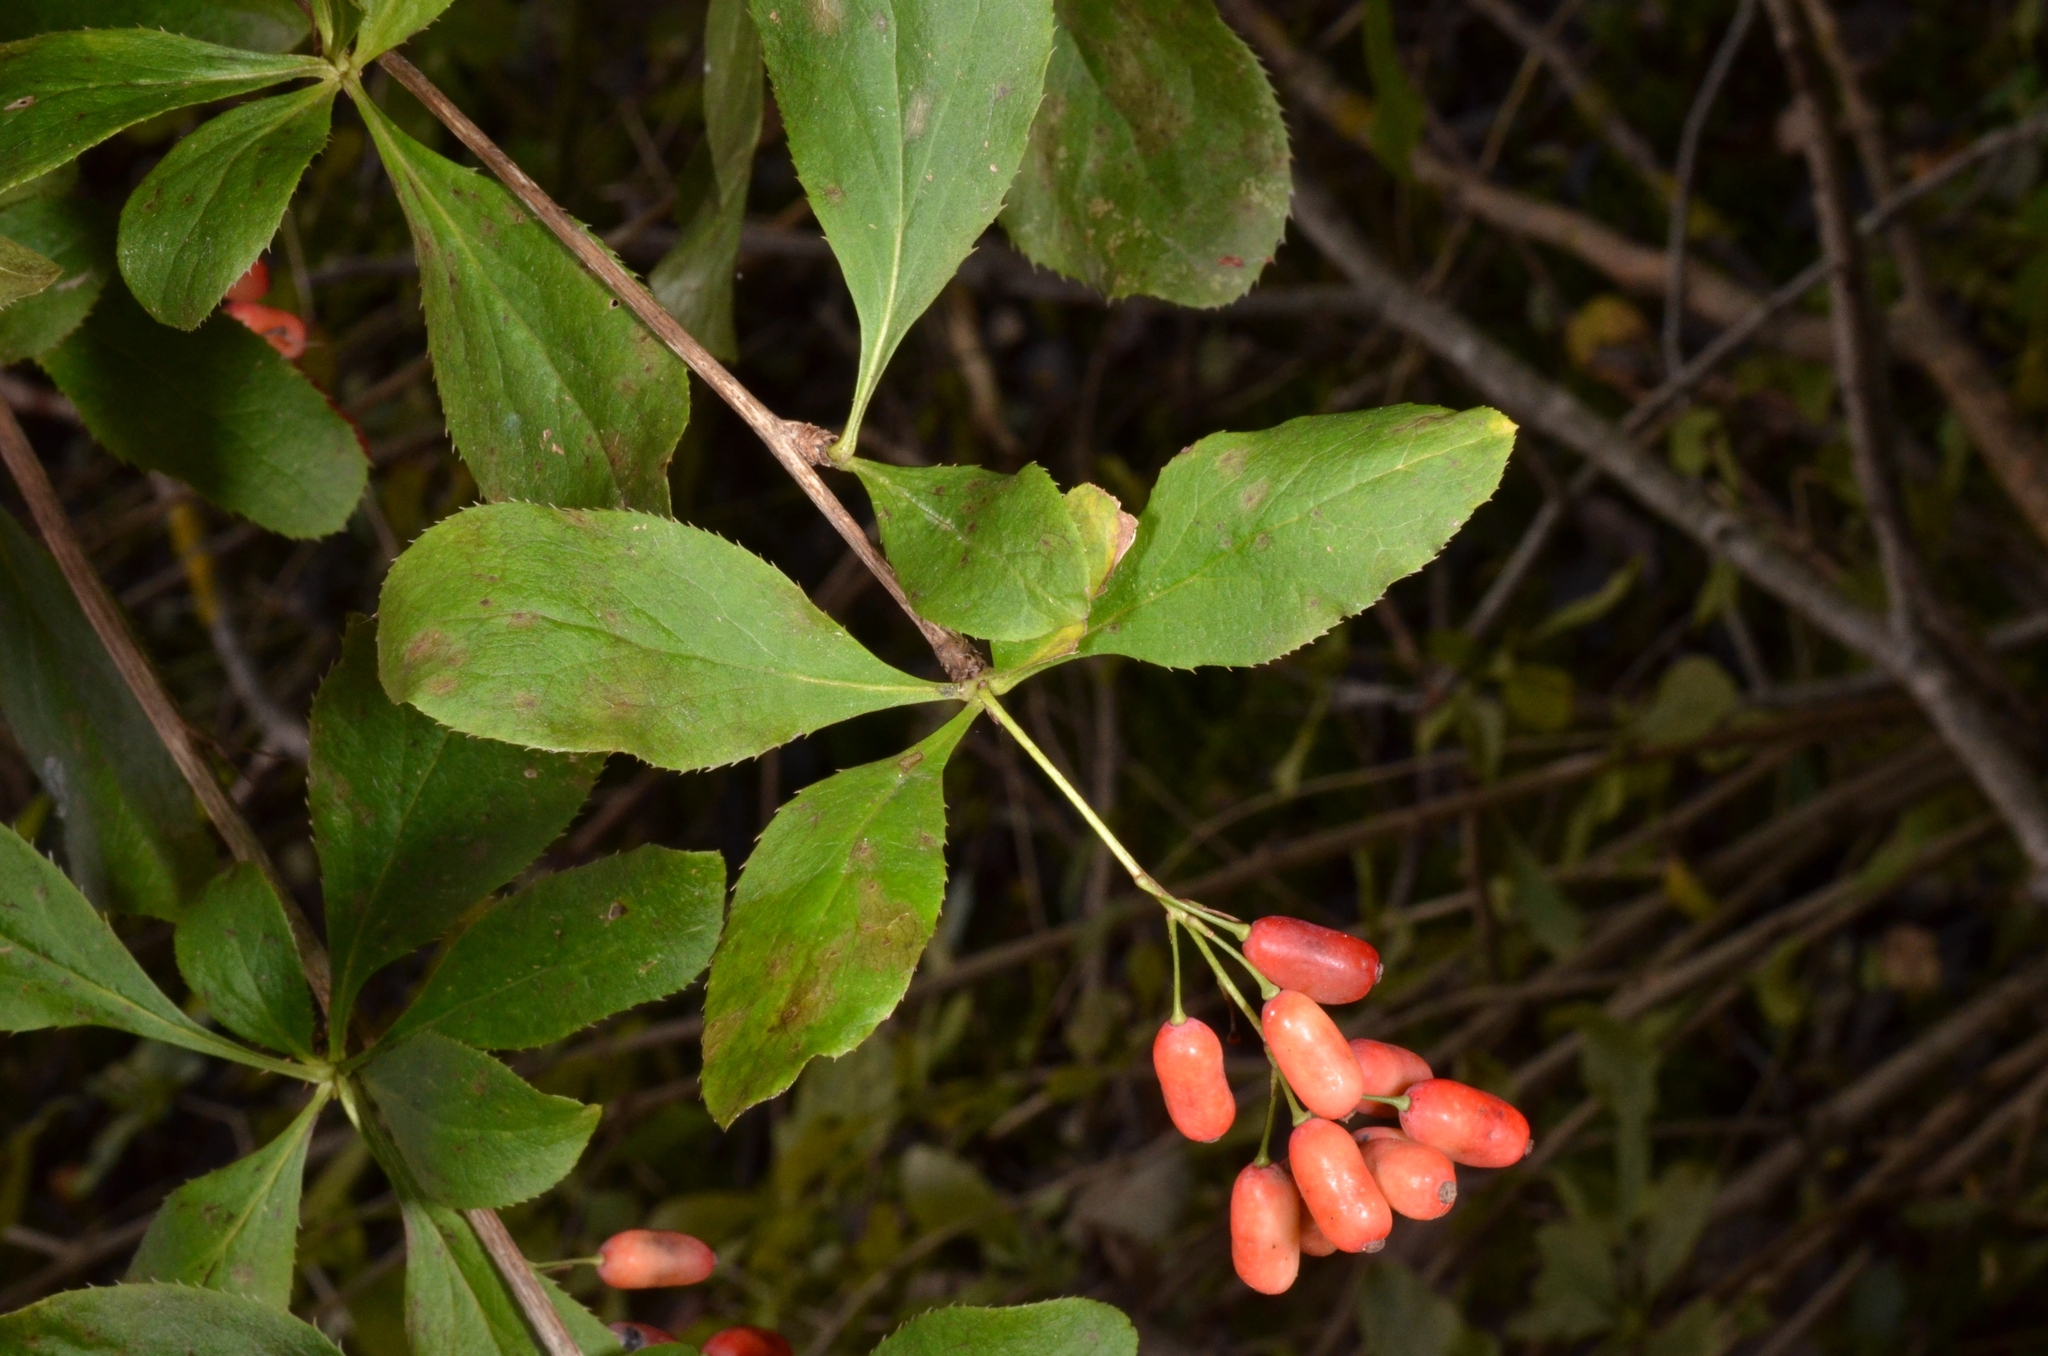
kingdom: Plantae
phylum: Tracheophyta
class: Magnoliopsida
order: Ranunculales
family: Berberidaceae
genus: Berberis
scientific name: Berberis vulgaris
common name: Barberry
